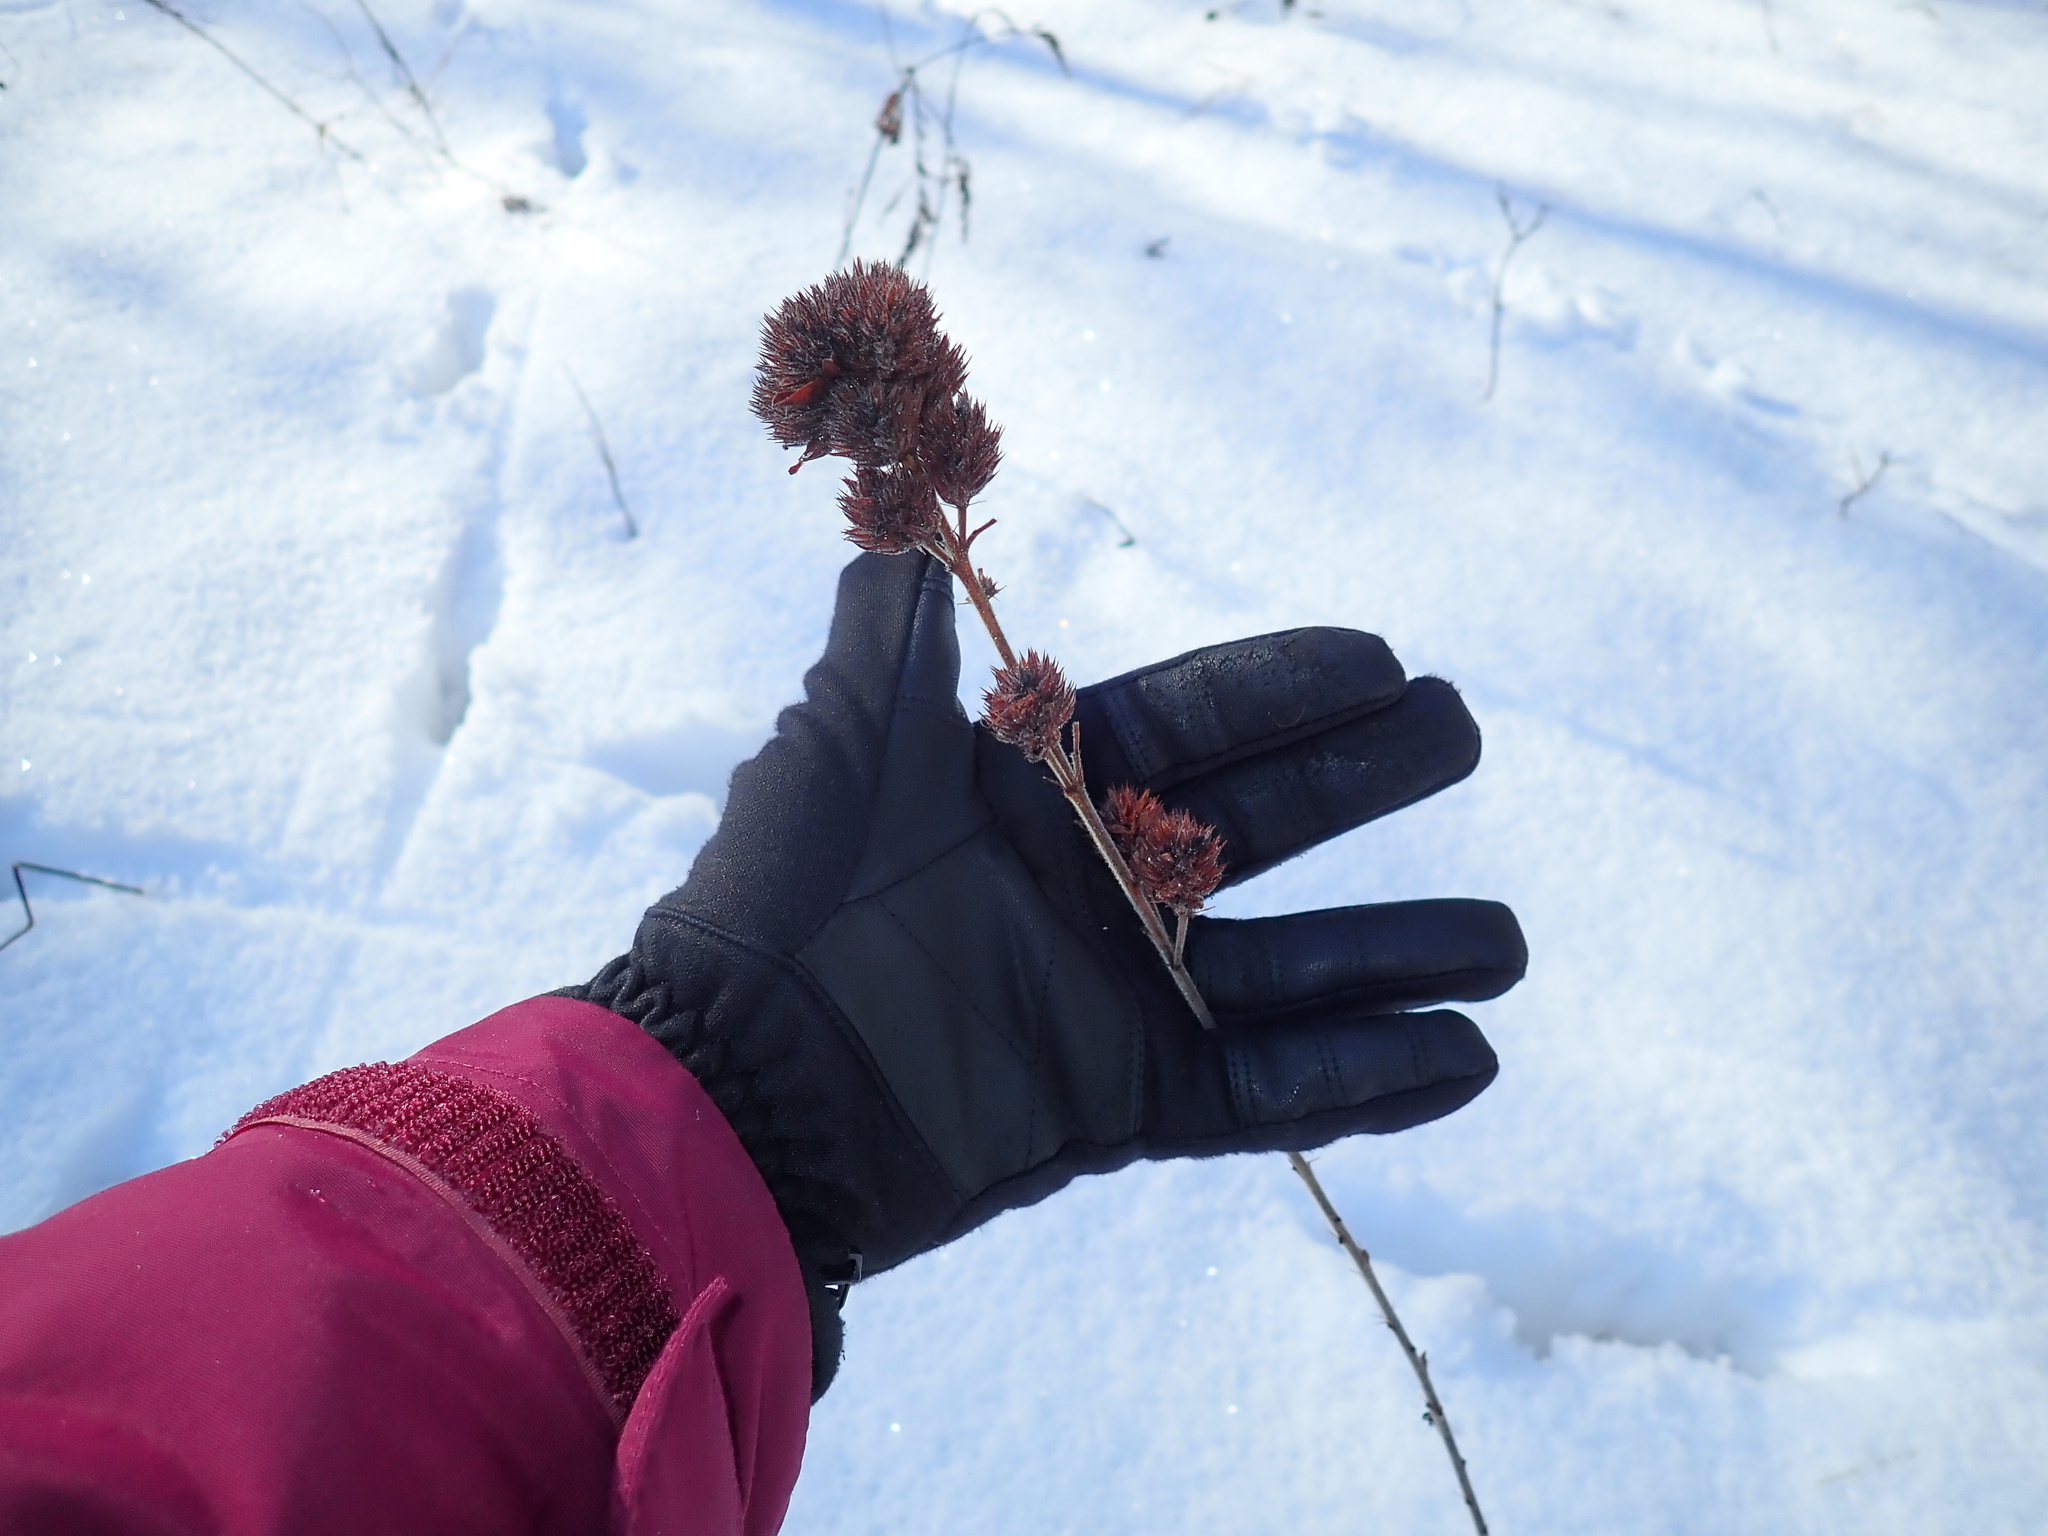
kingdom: Plantae
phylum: Tracheophyta
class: Magnoliopsida
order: Fabales
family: Fabaceae
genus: Lespedeza
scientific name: Lespedeza capitata
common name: Dusty clover
